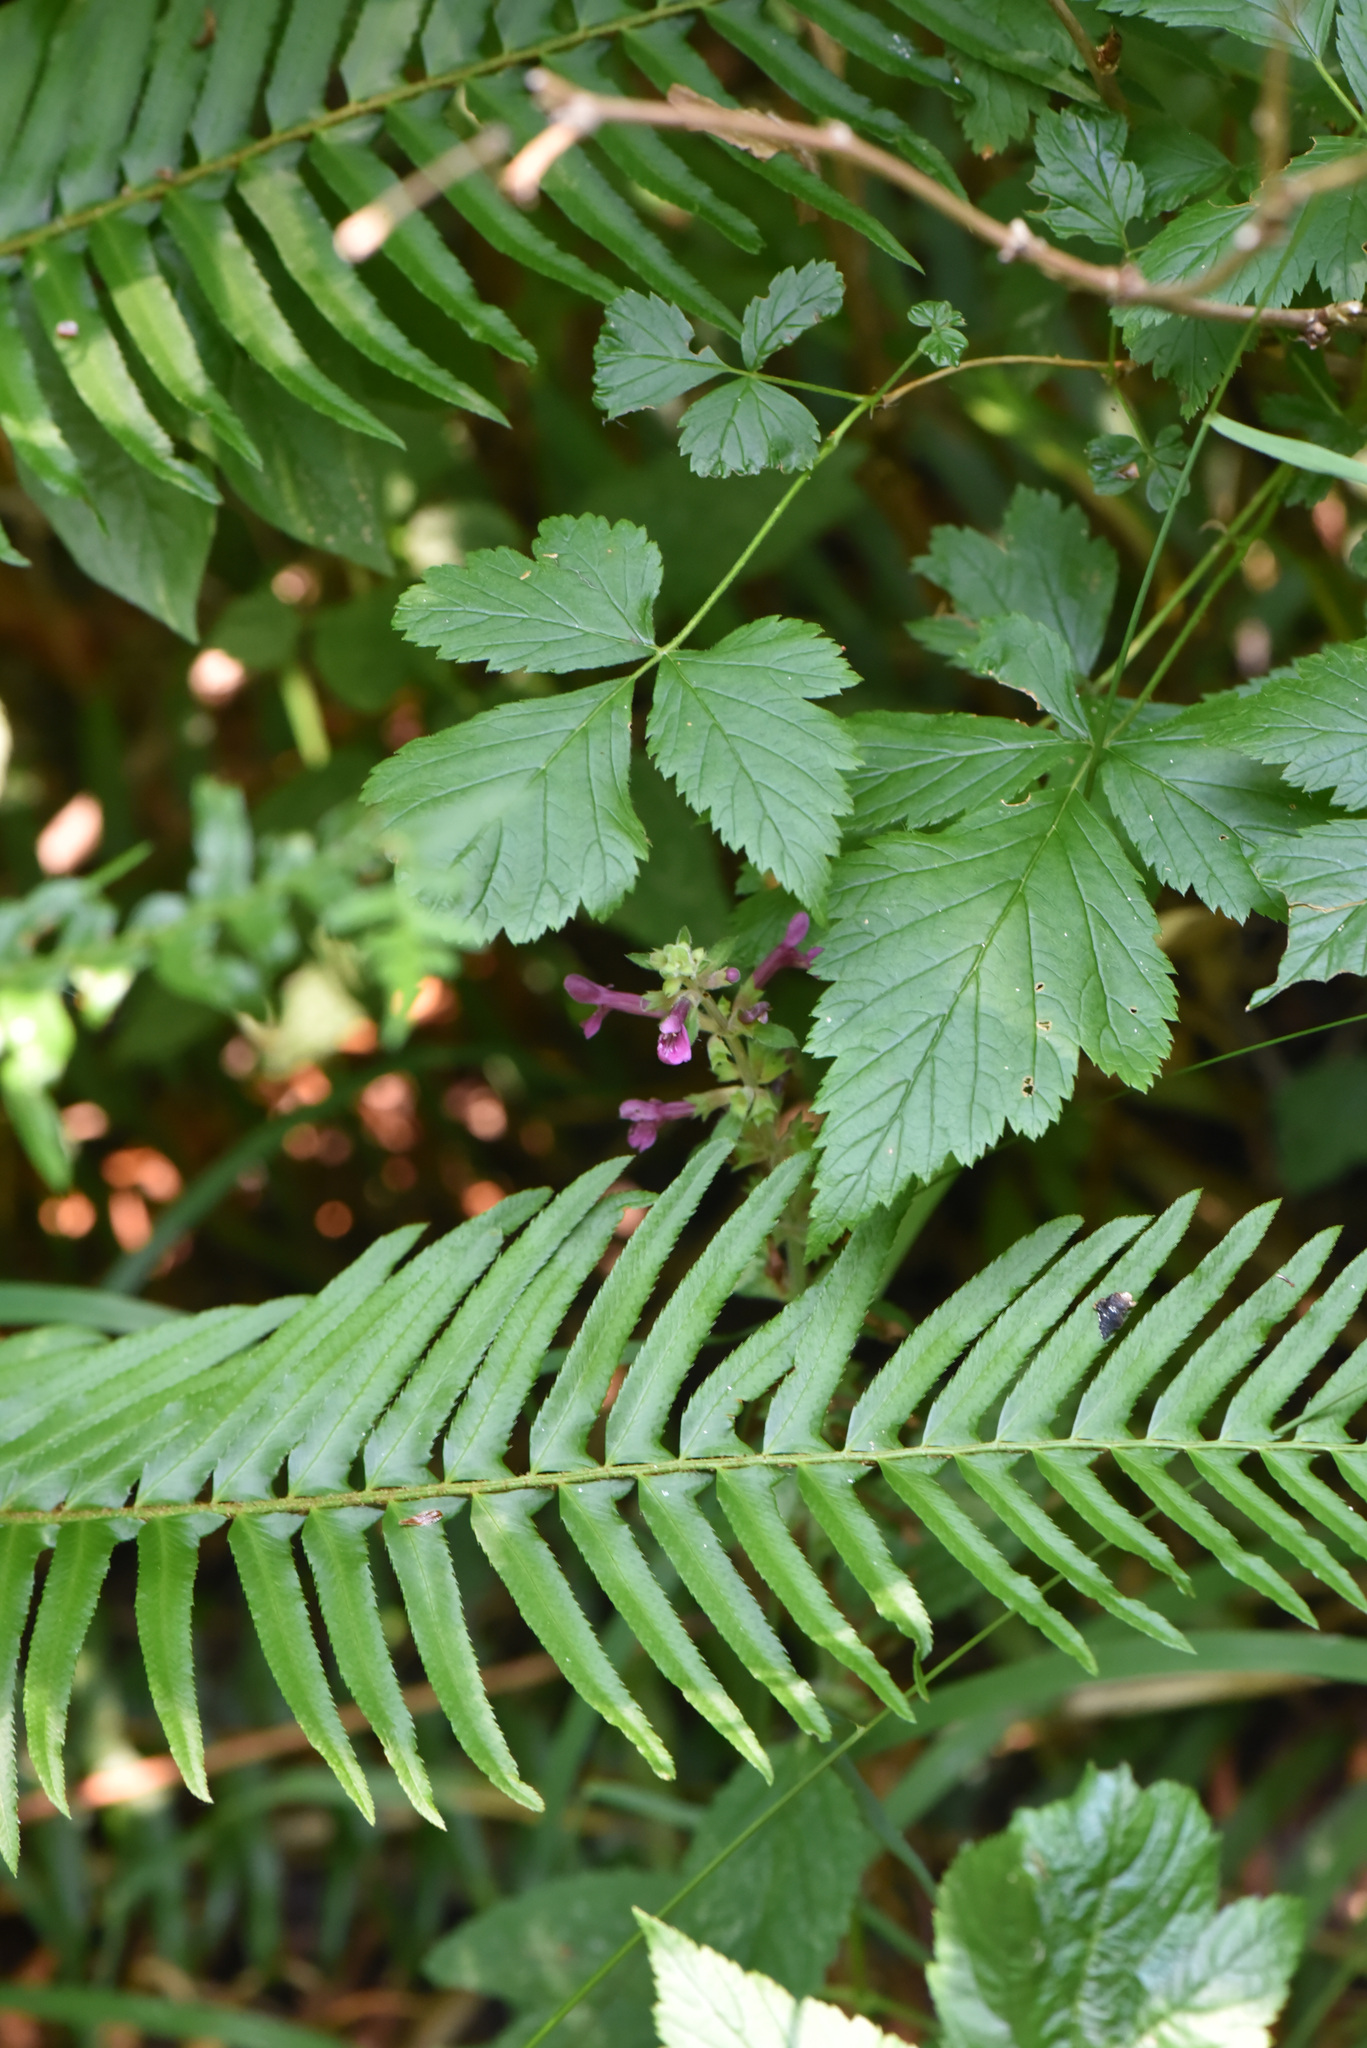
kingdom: Plantae
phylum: Tracheophyta
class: Magnoliopsida
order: Lamiales
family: Lamiaceae
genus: Stachys
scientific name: Stachys chamissonis
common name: Coastal hedge-nettle
